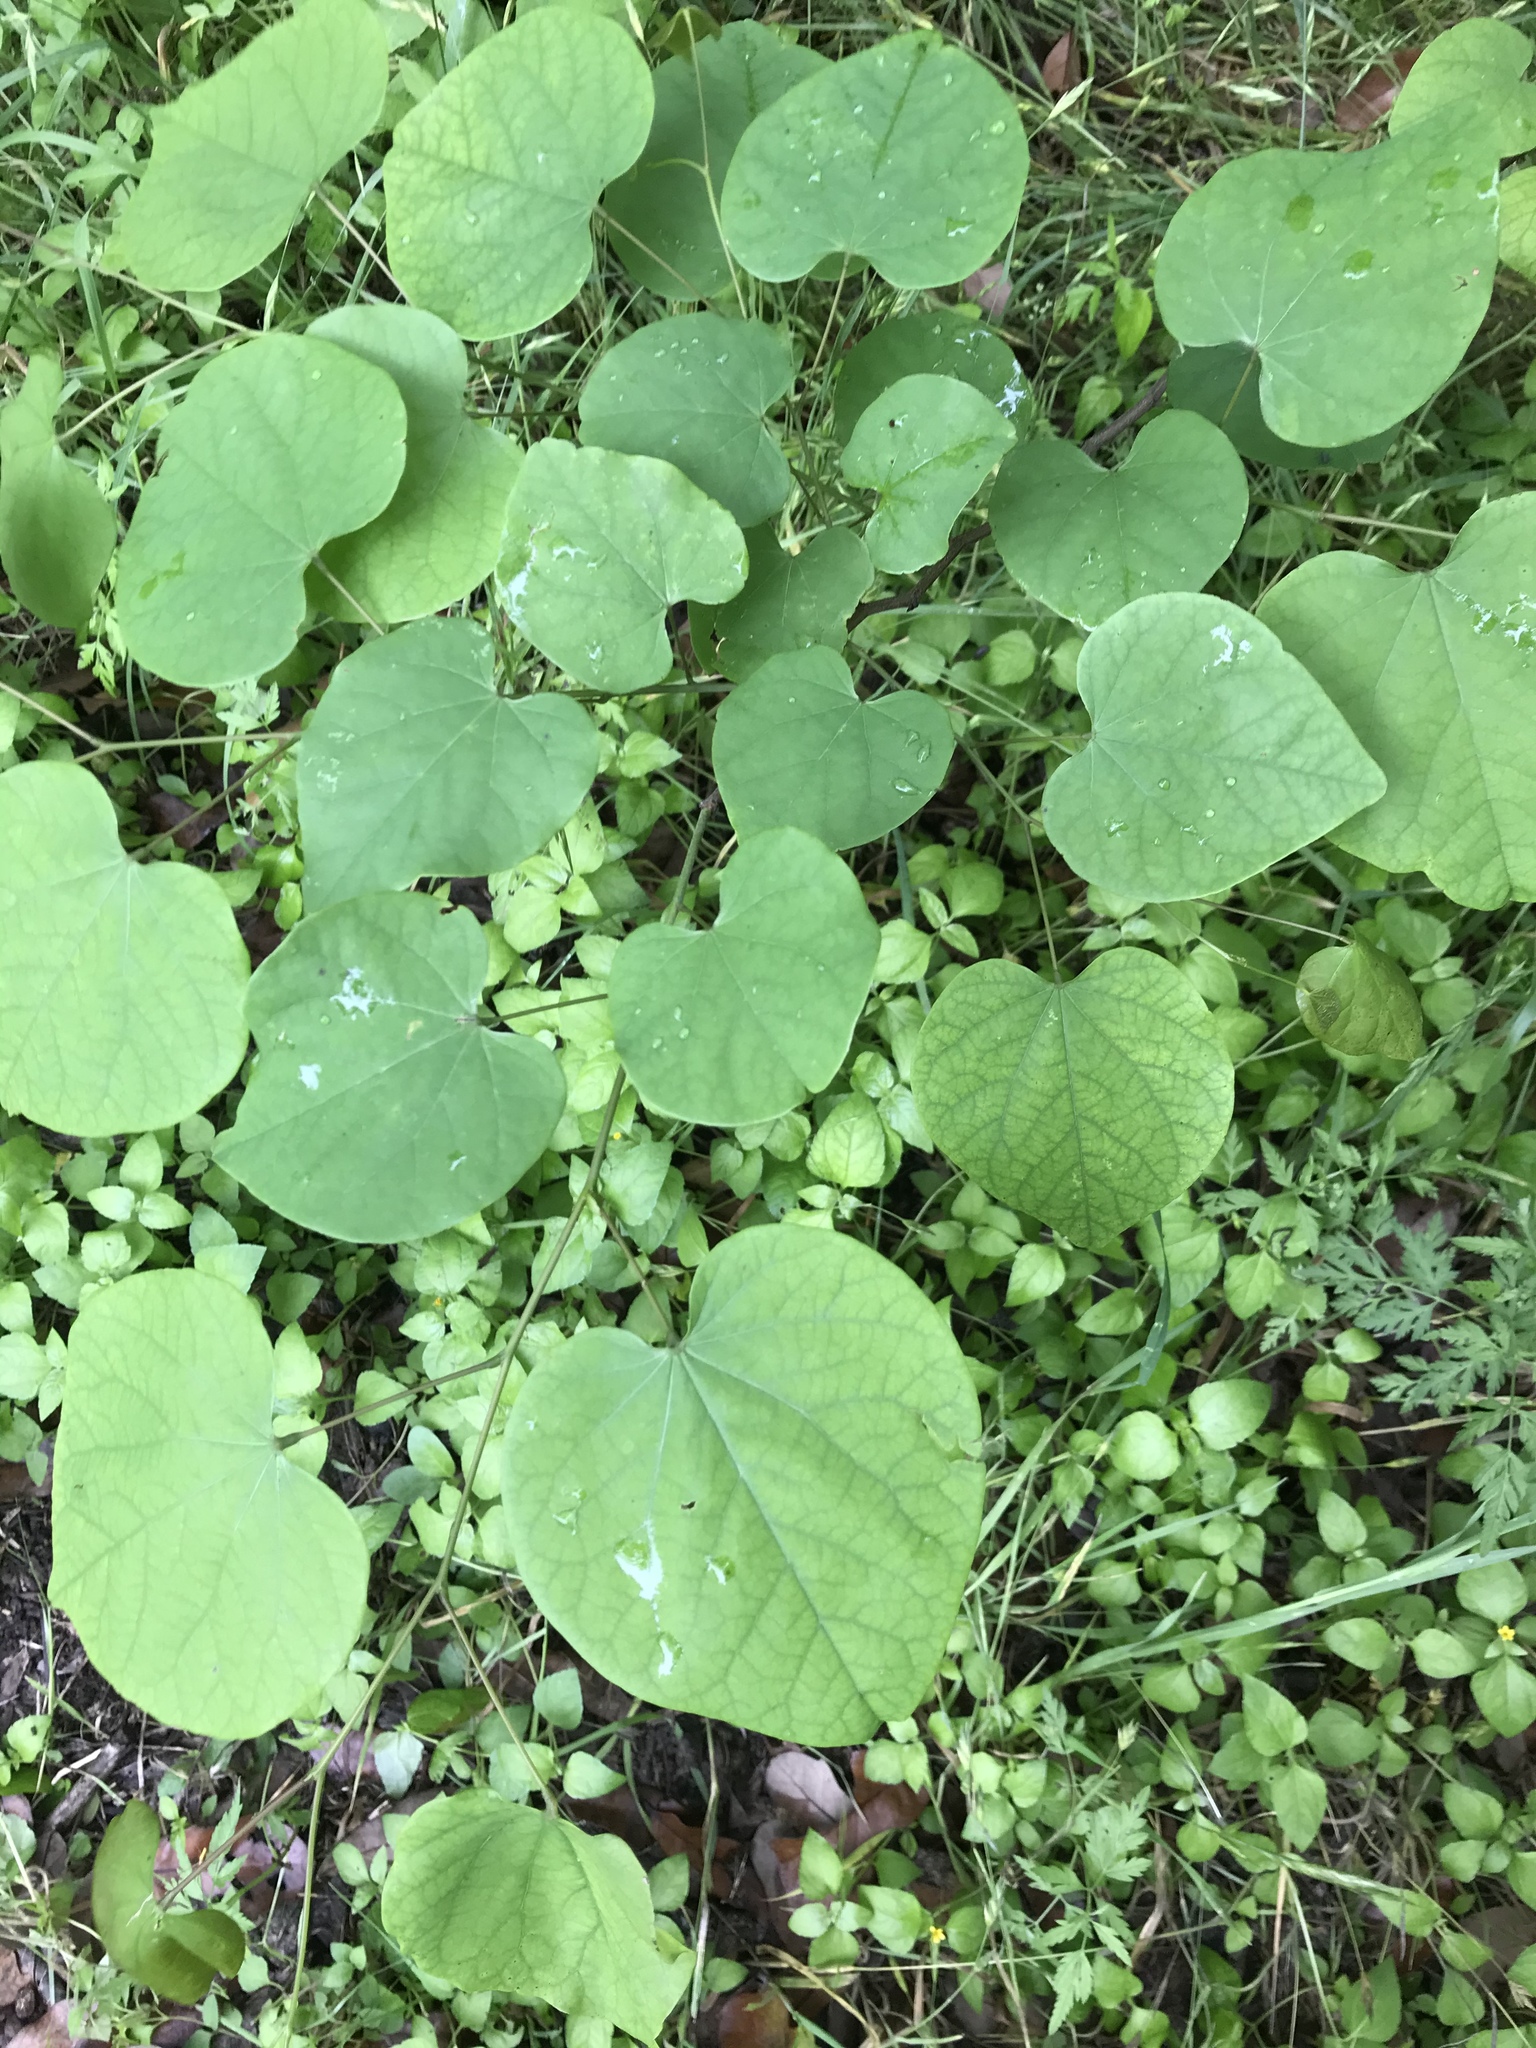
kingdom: Plantae
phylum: Tracheophyta
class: Magnoliopsida
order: Fabales
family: Fabaceae
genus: Cercis
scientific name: Cercis canadensis
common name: Eastern redbud
